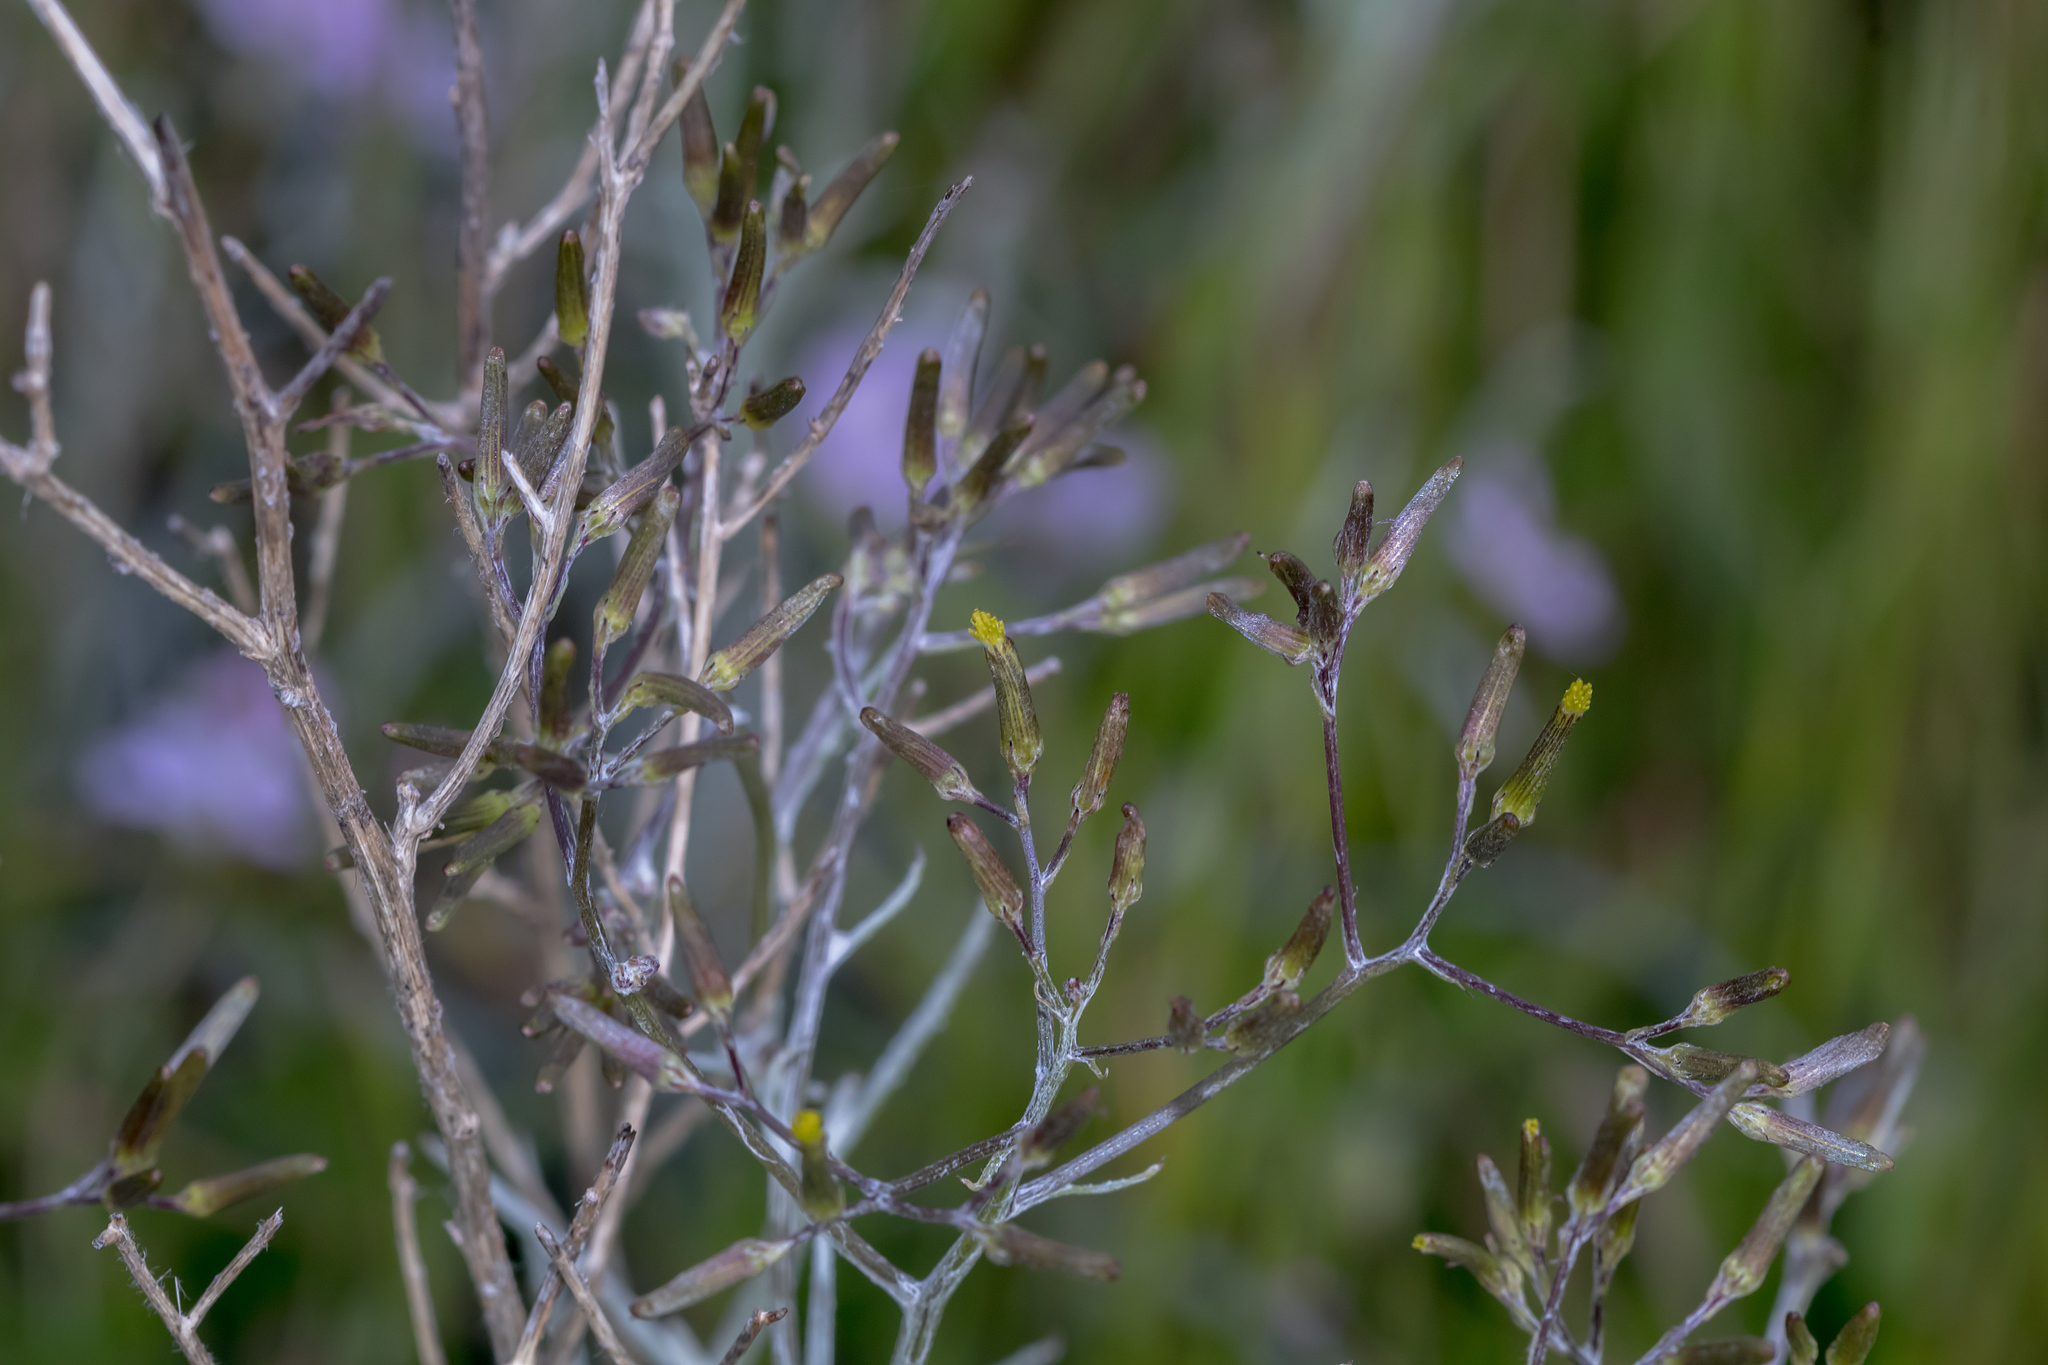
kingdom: Plantae
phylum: Tracheophyta
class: Magnoliopsida
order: Asterales
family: Asteraceae
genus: Senecio
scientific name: Senecio quadridentatus
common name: Cotton fireweed
